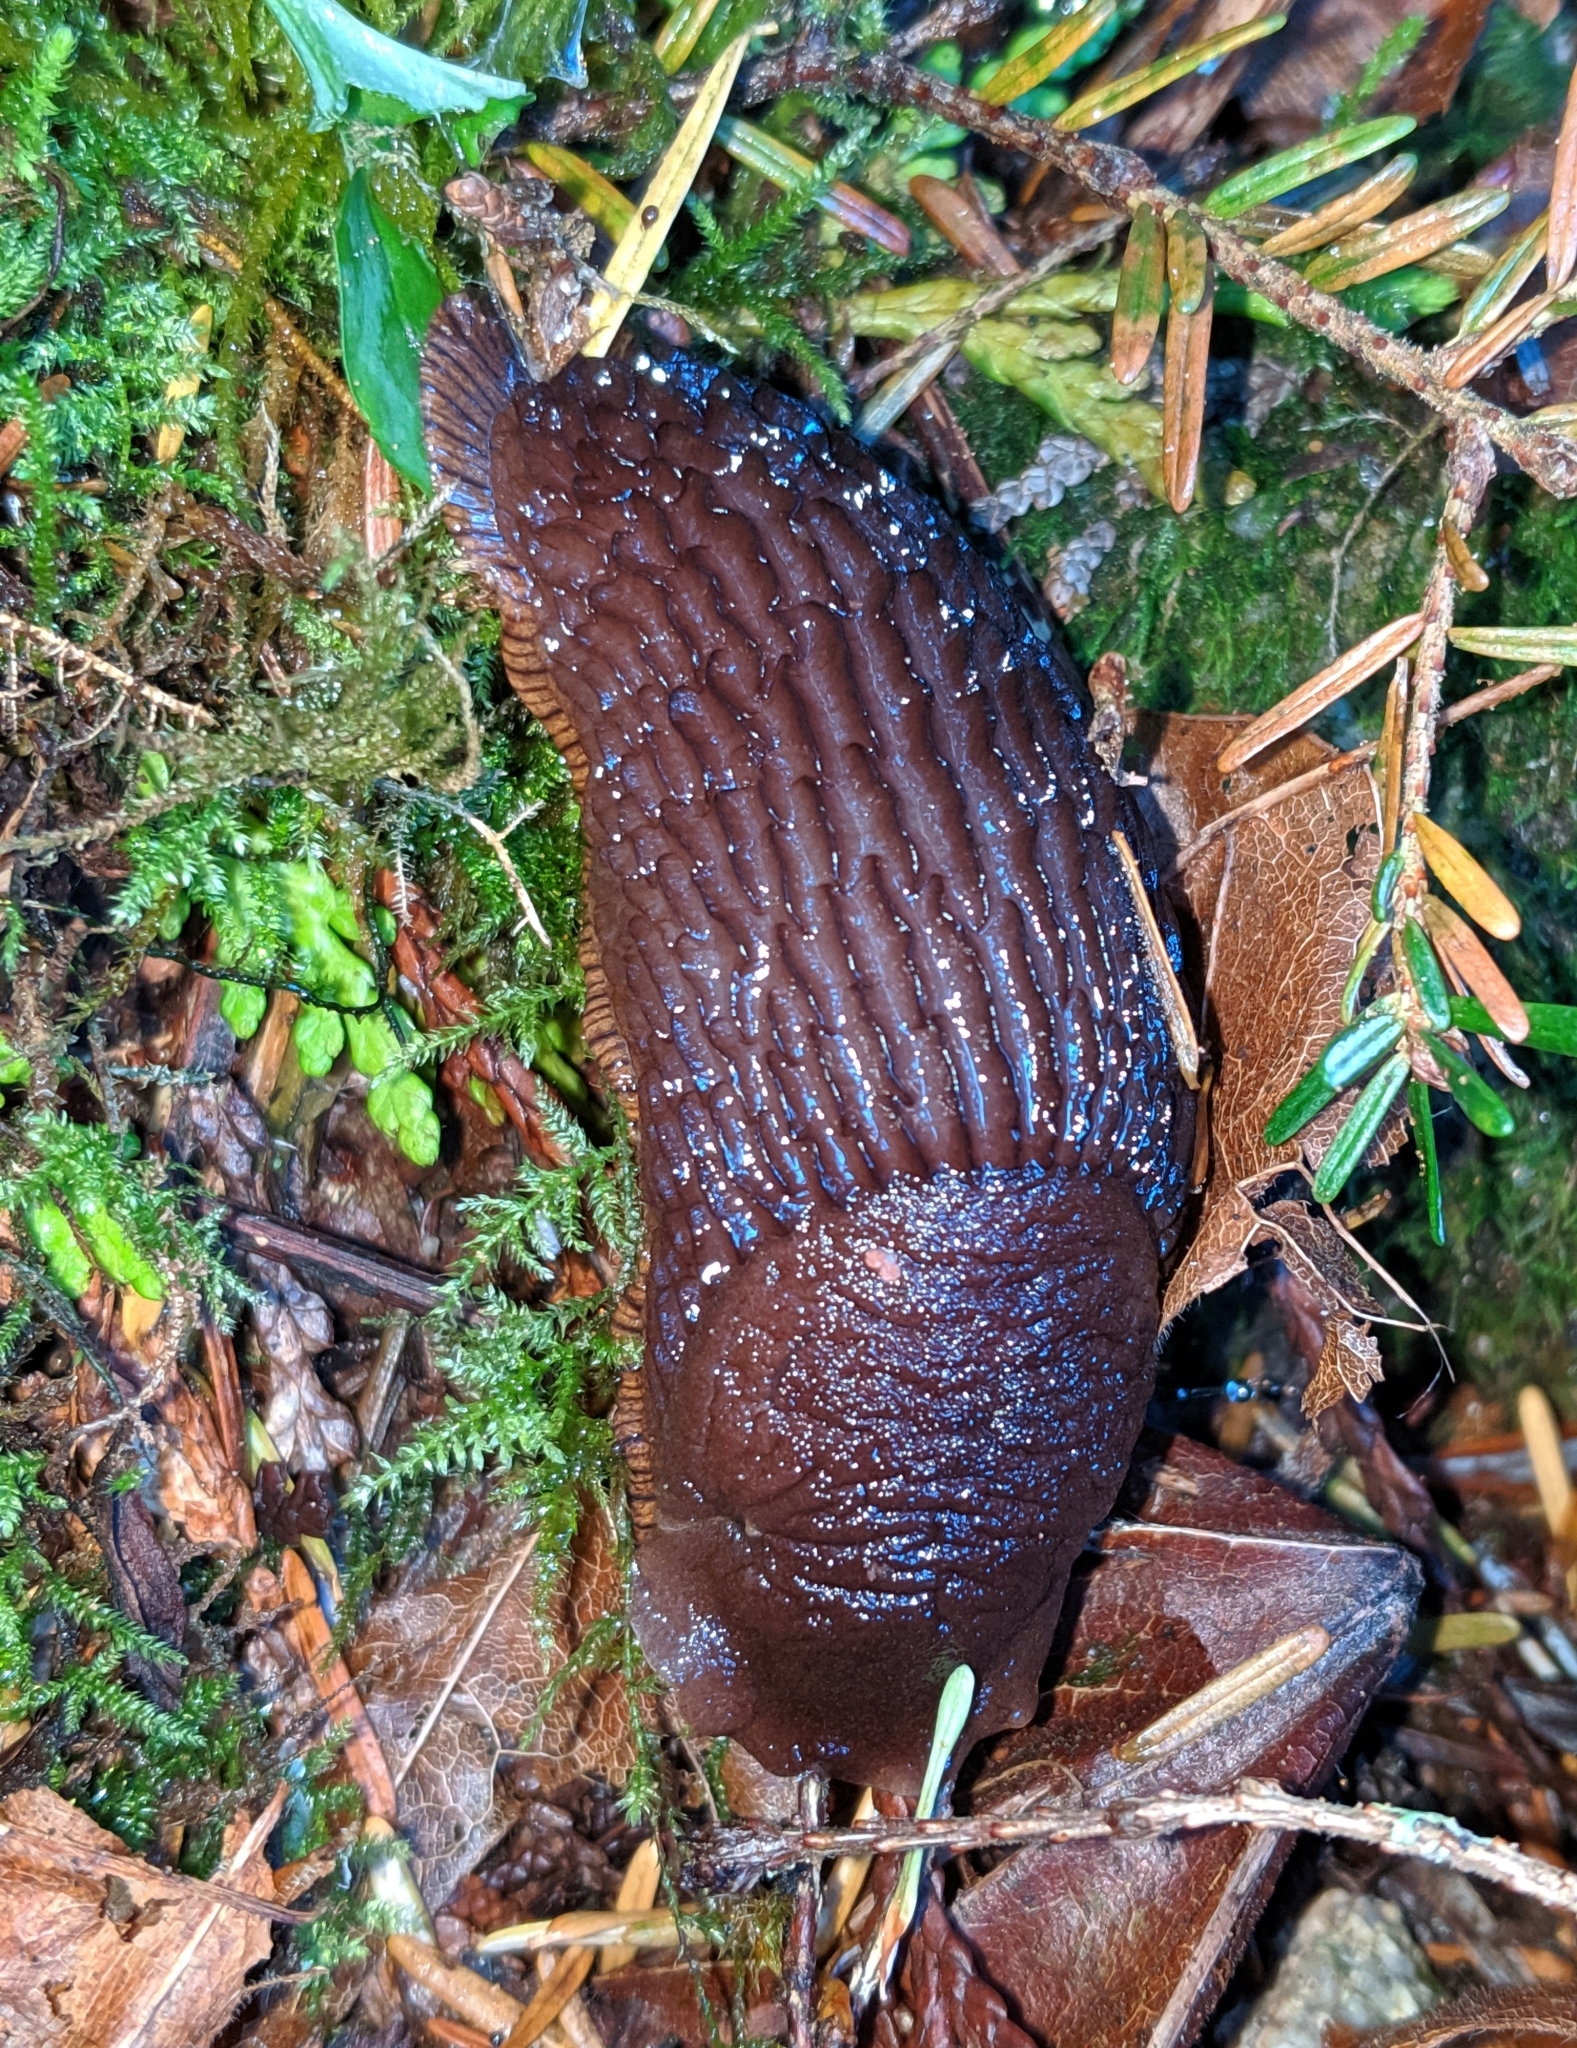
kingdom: Animalia
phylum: Mollusca
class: Gastropoda
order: Stylommatophora
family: Arionidae
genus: Arion
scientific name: Arion rufus
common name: Chocolate arion
